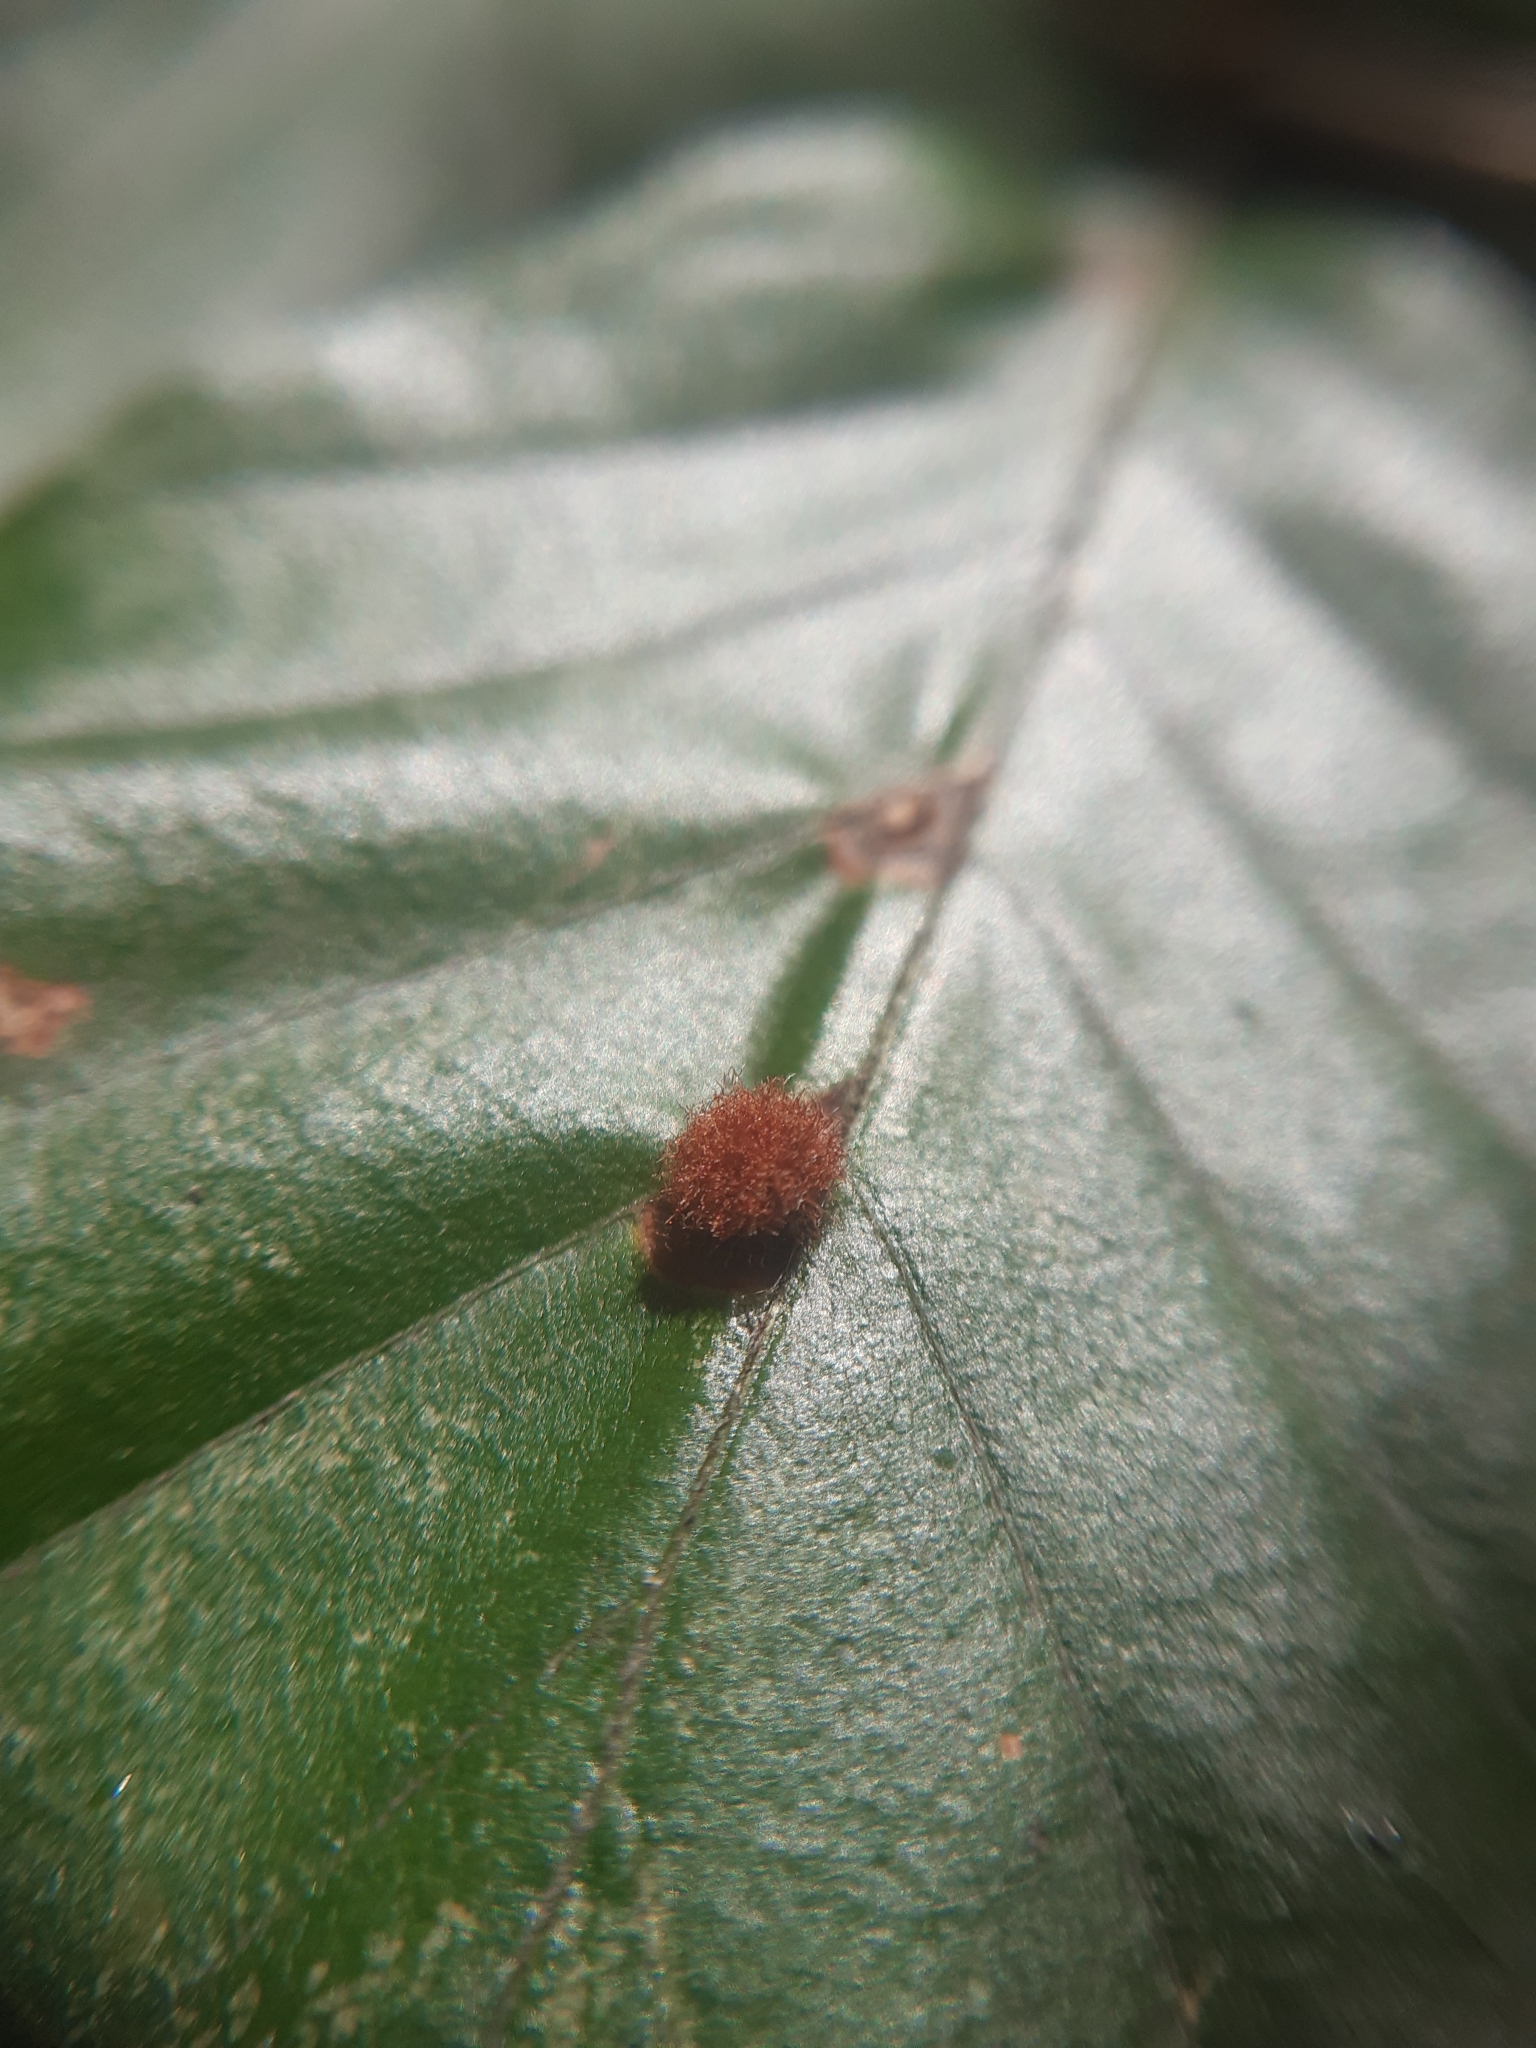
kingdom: Animalia
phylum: Arthropoda
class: Insecta
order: Diptera
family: Cecidomyiidae
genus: Hartigiola
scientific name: Hartigiola annulipes
